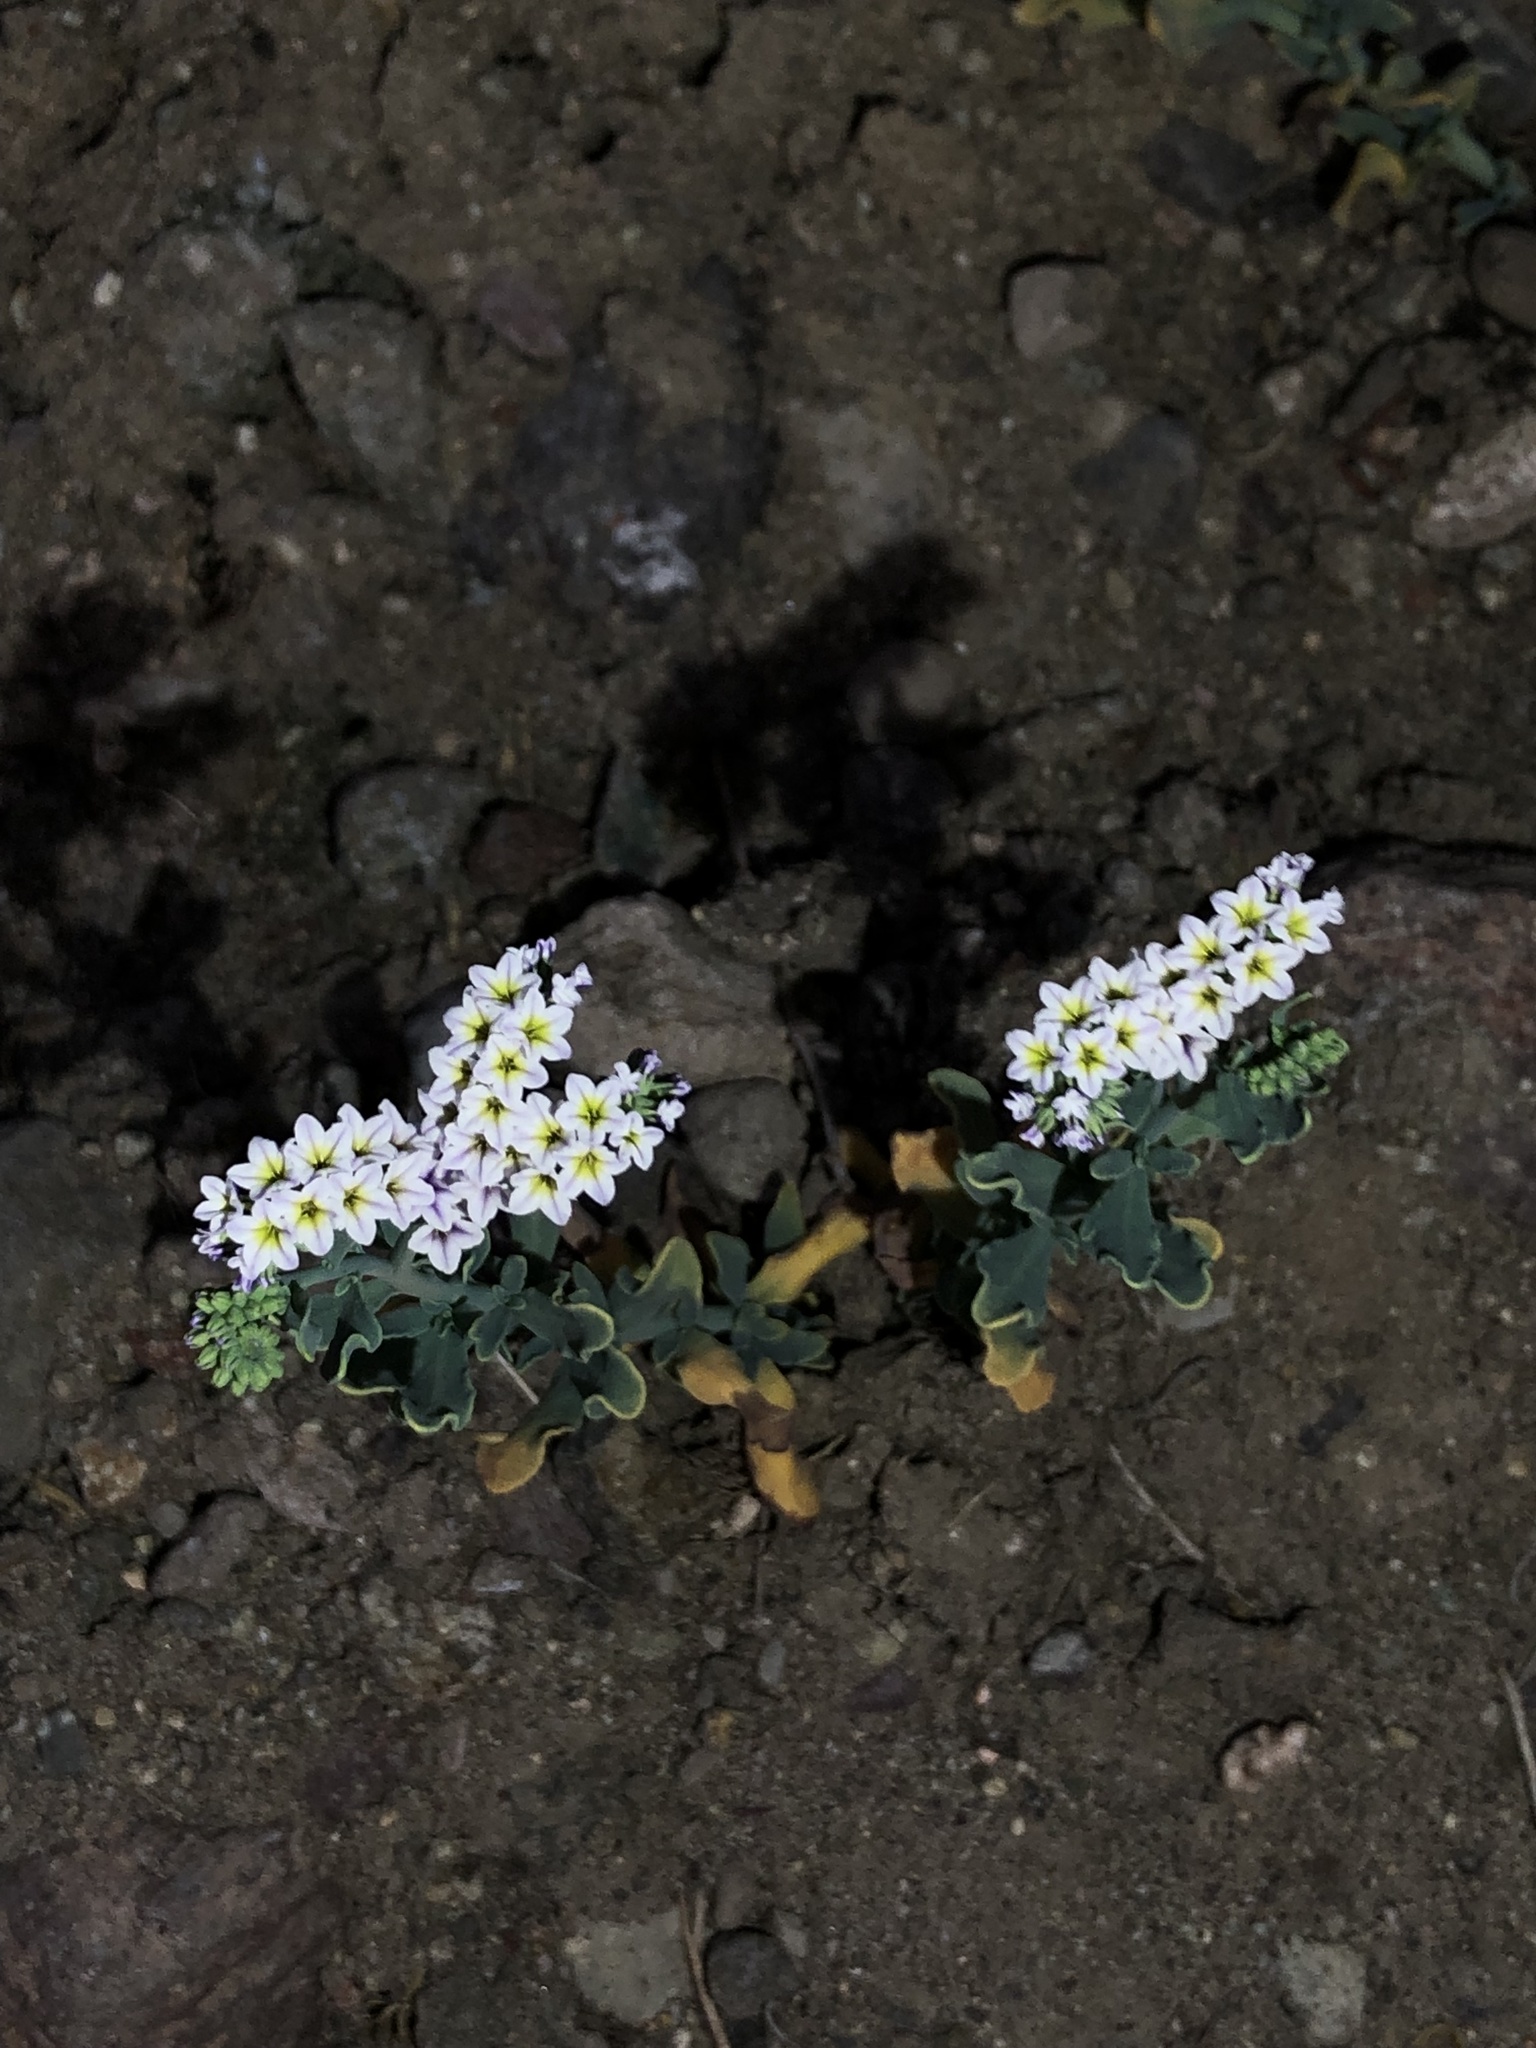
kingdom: Plantae
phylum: Tracheophyta
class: Magnoliopsida
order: Boraginales
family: Heliotropiaceae
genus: Heliotropium
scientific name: Heliotropium curassavicum
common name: Seaside heliotrope
